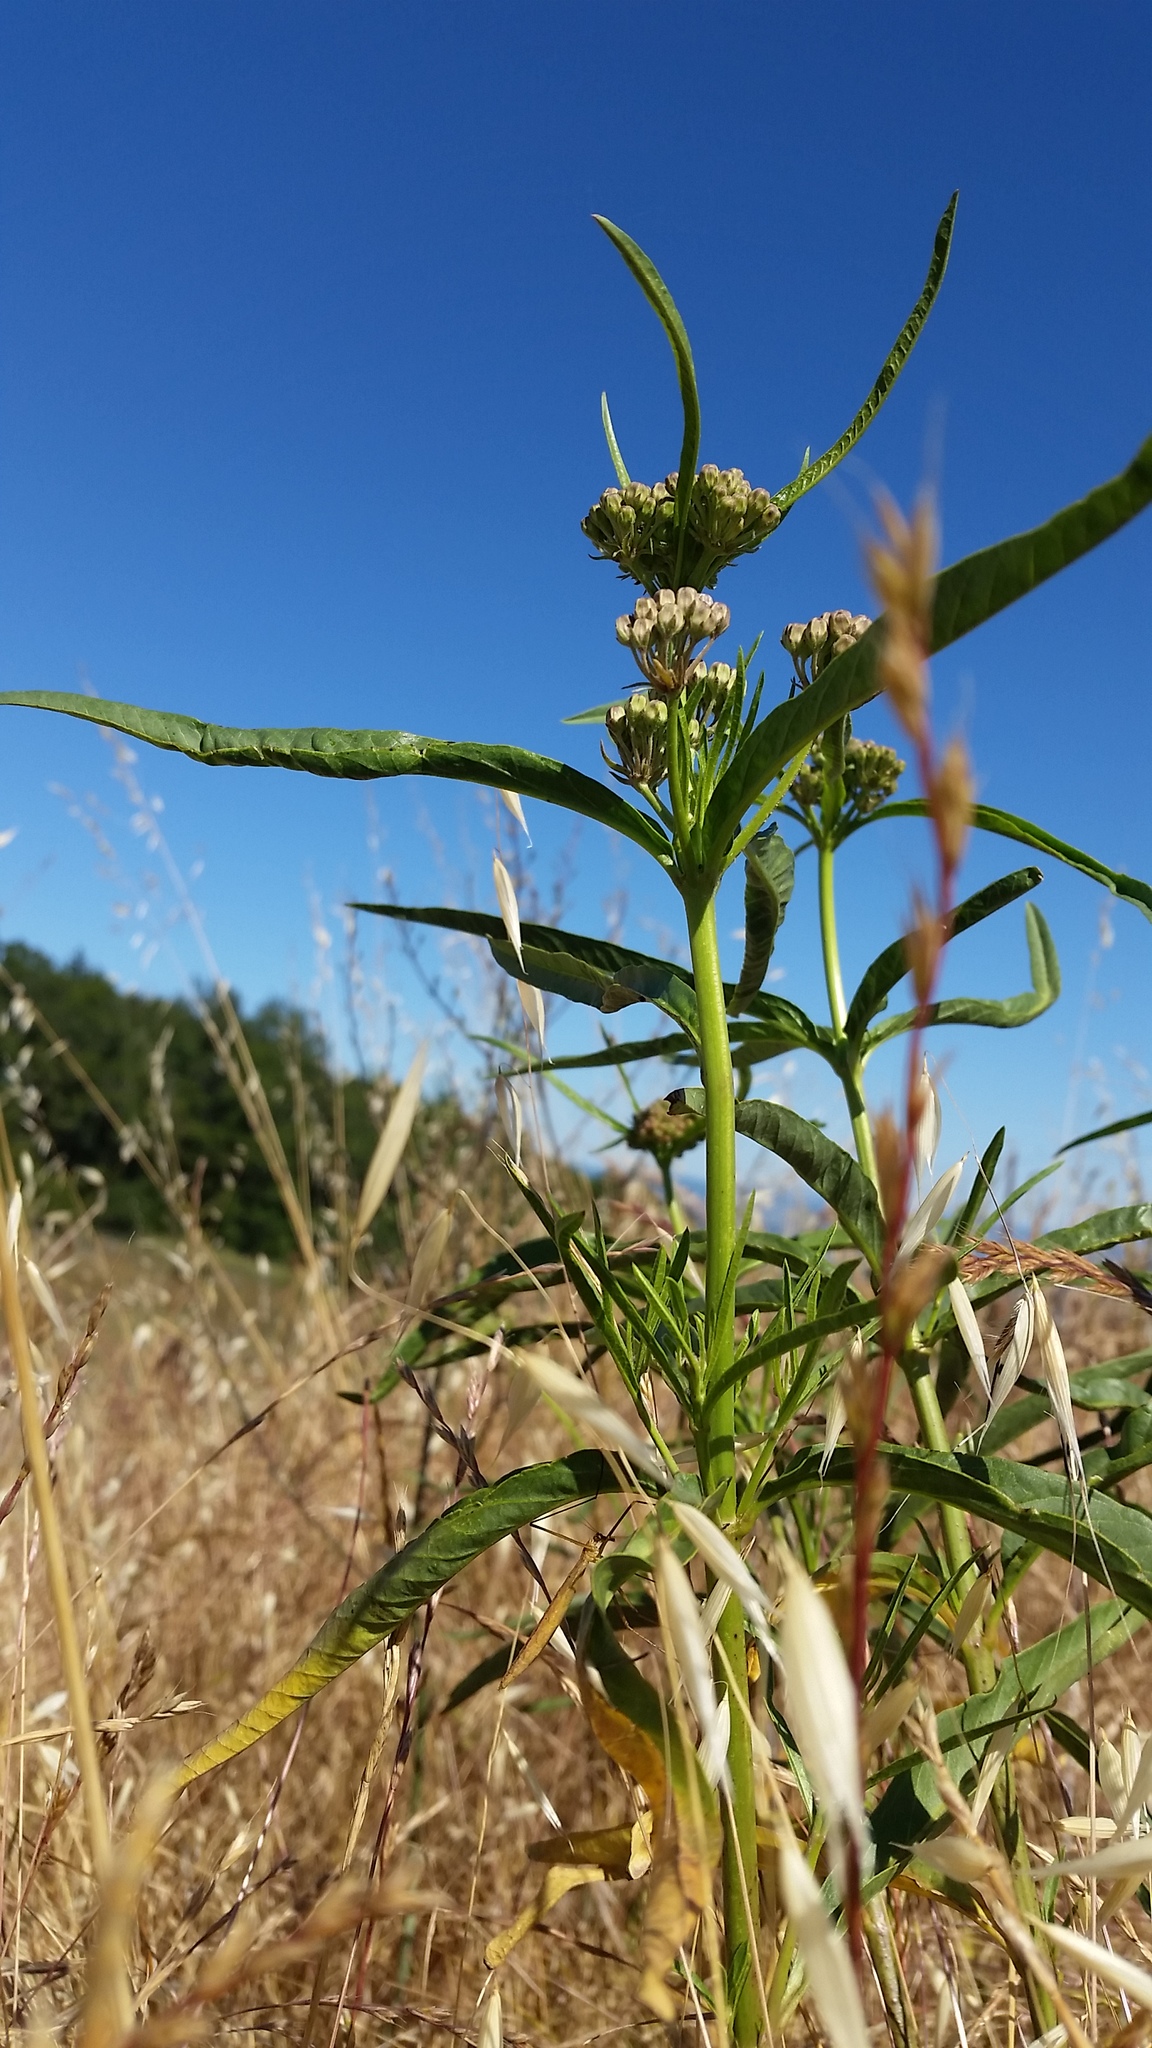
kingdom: Plantae
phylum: Tracheophyta
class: Magnoliopsida
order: Gentianales
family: Apocynaceae
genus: Asclepias
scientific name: Asclepias fascicularis
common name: Mexican milkweed
